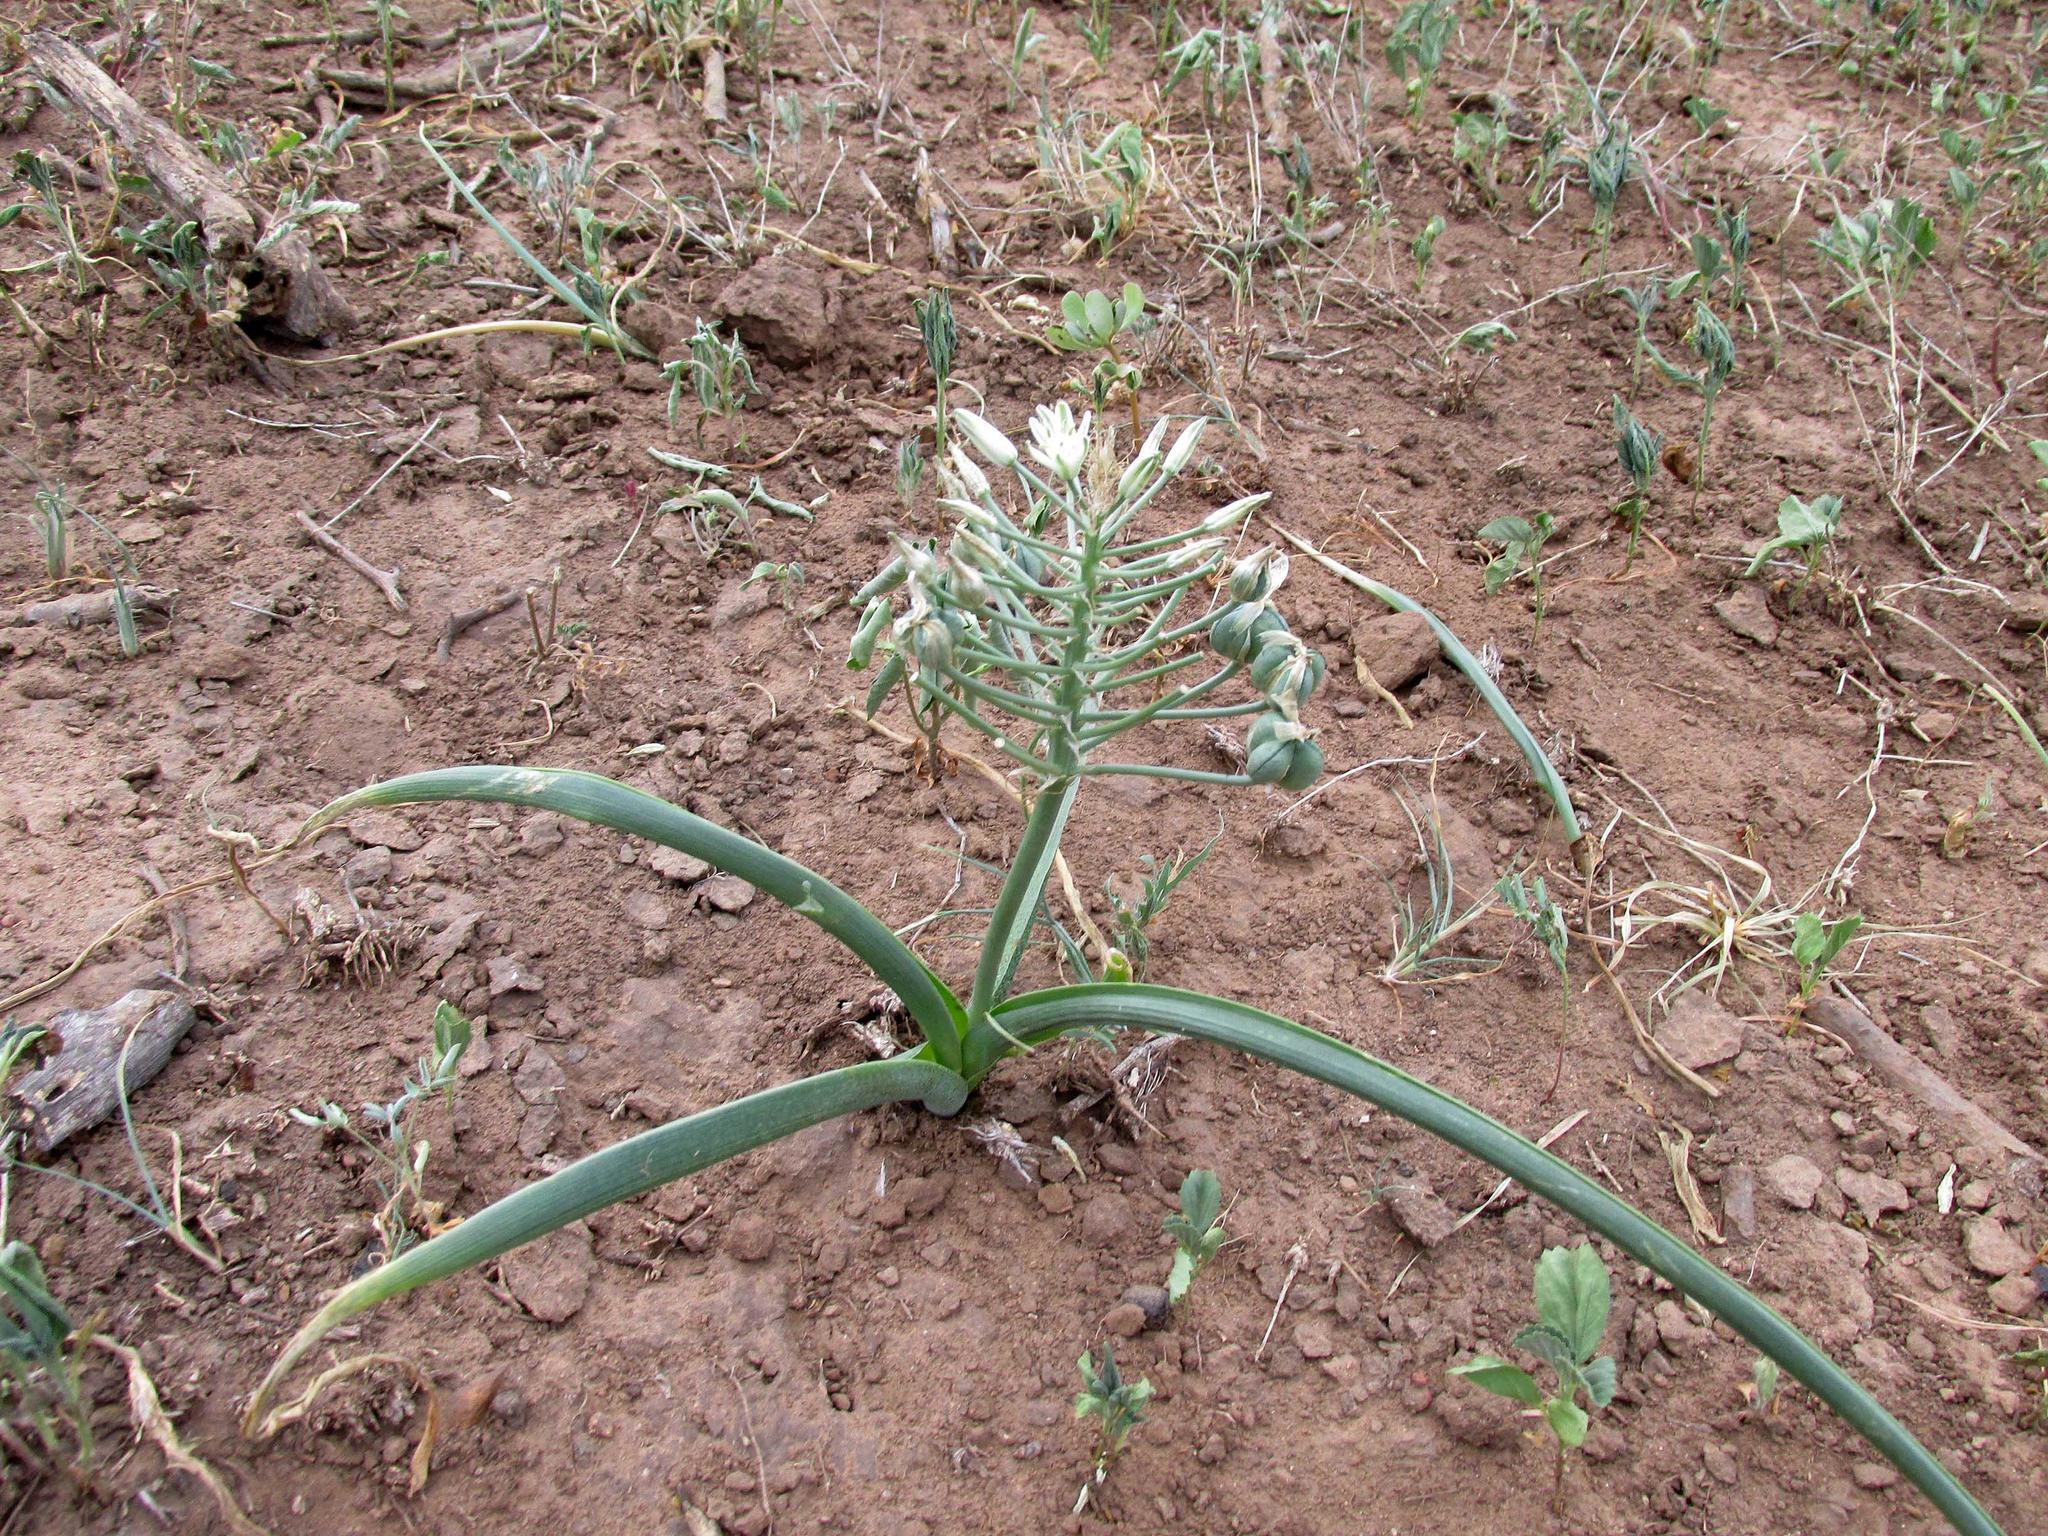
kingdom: Plantae
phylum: Tracheophyta
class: Liliopsida
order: Asparagales
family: Asparagaceae
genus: Albuca
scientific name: Albuca seineri
